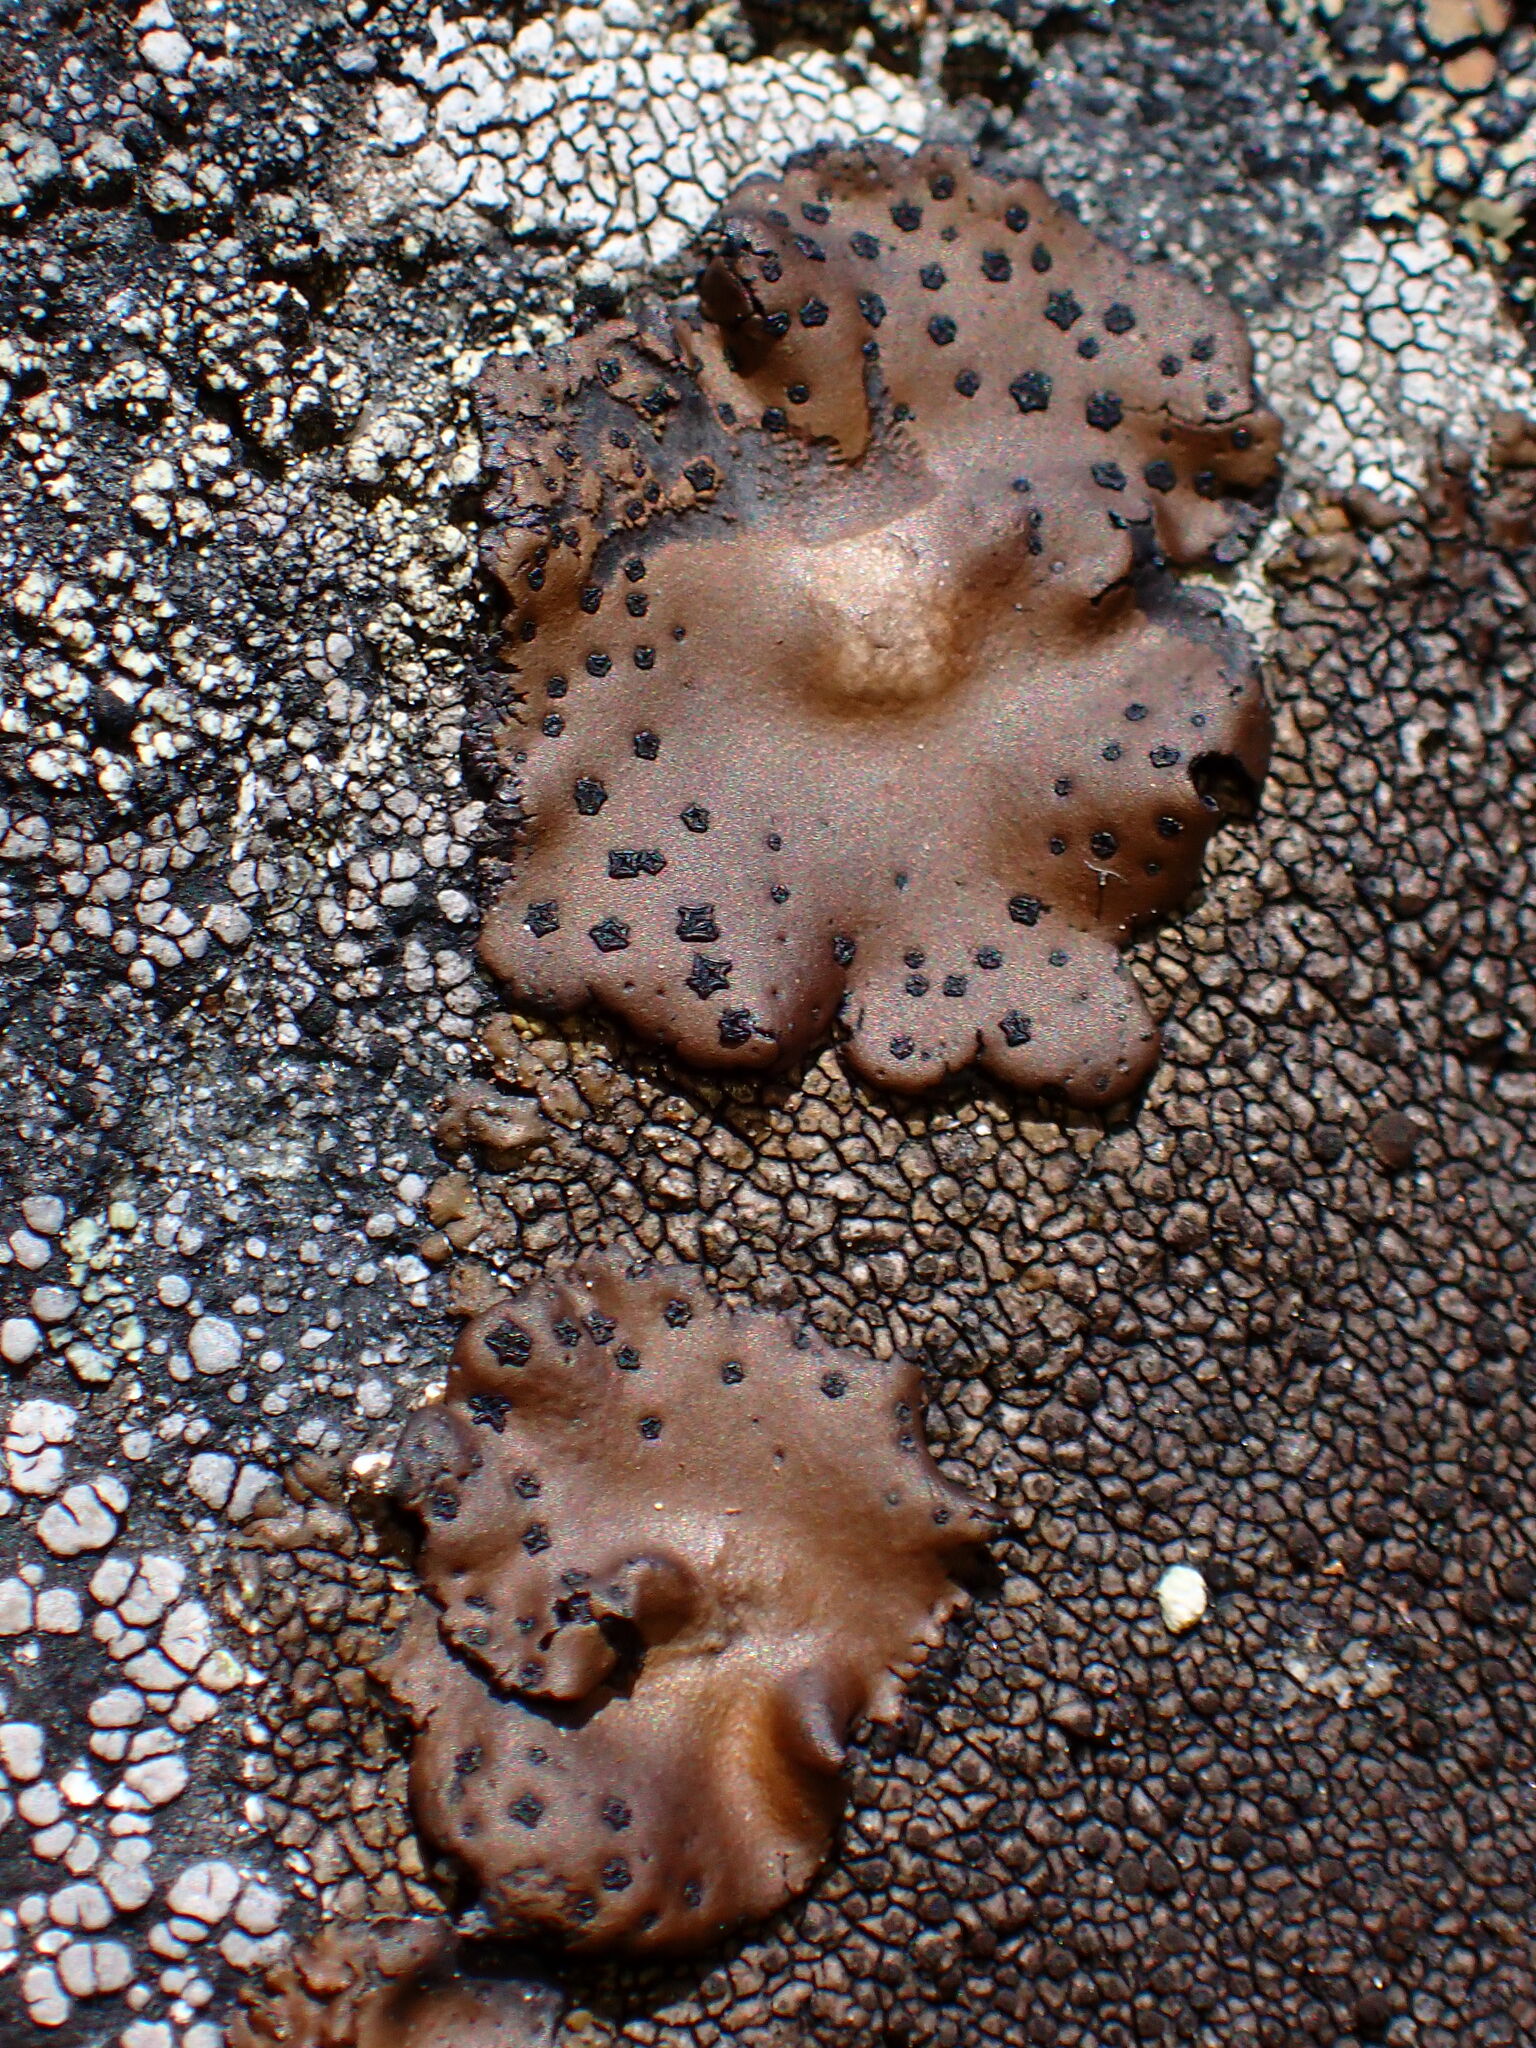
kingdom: Fungi
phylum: Ascomycota
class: Lecanoromycetes
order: Umbilicariales
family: Umbilicariaceae
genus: Umbilicaria
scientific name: Umbilicaria phaea
